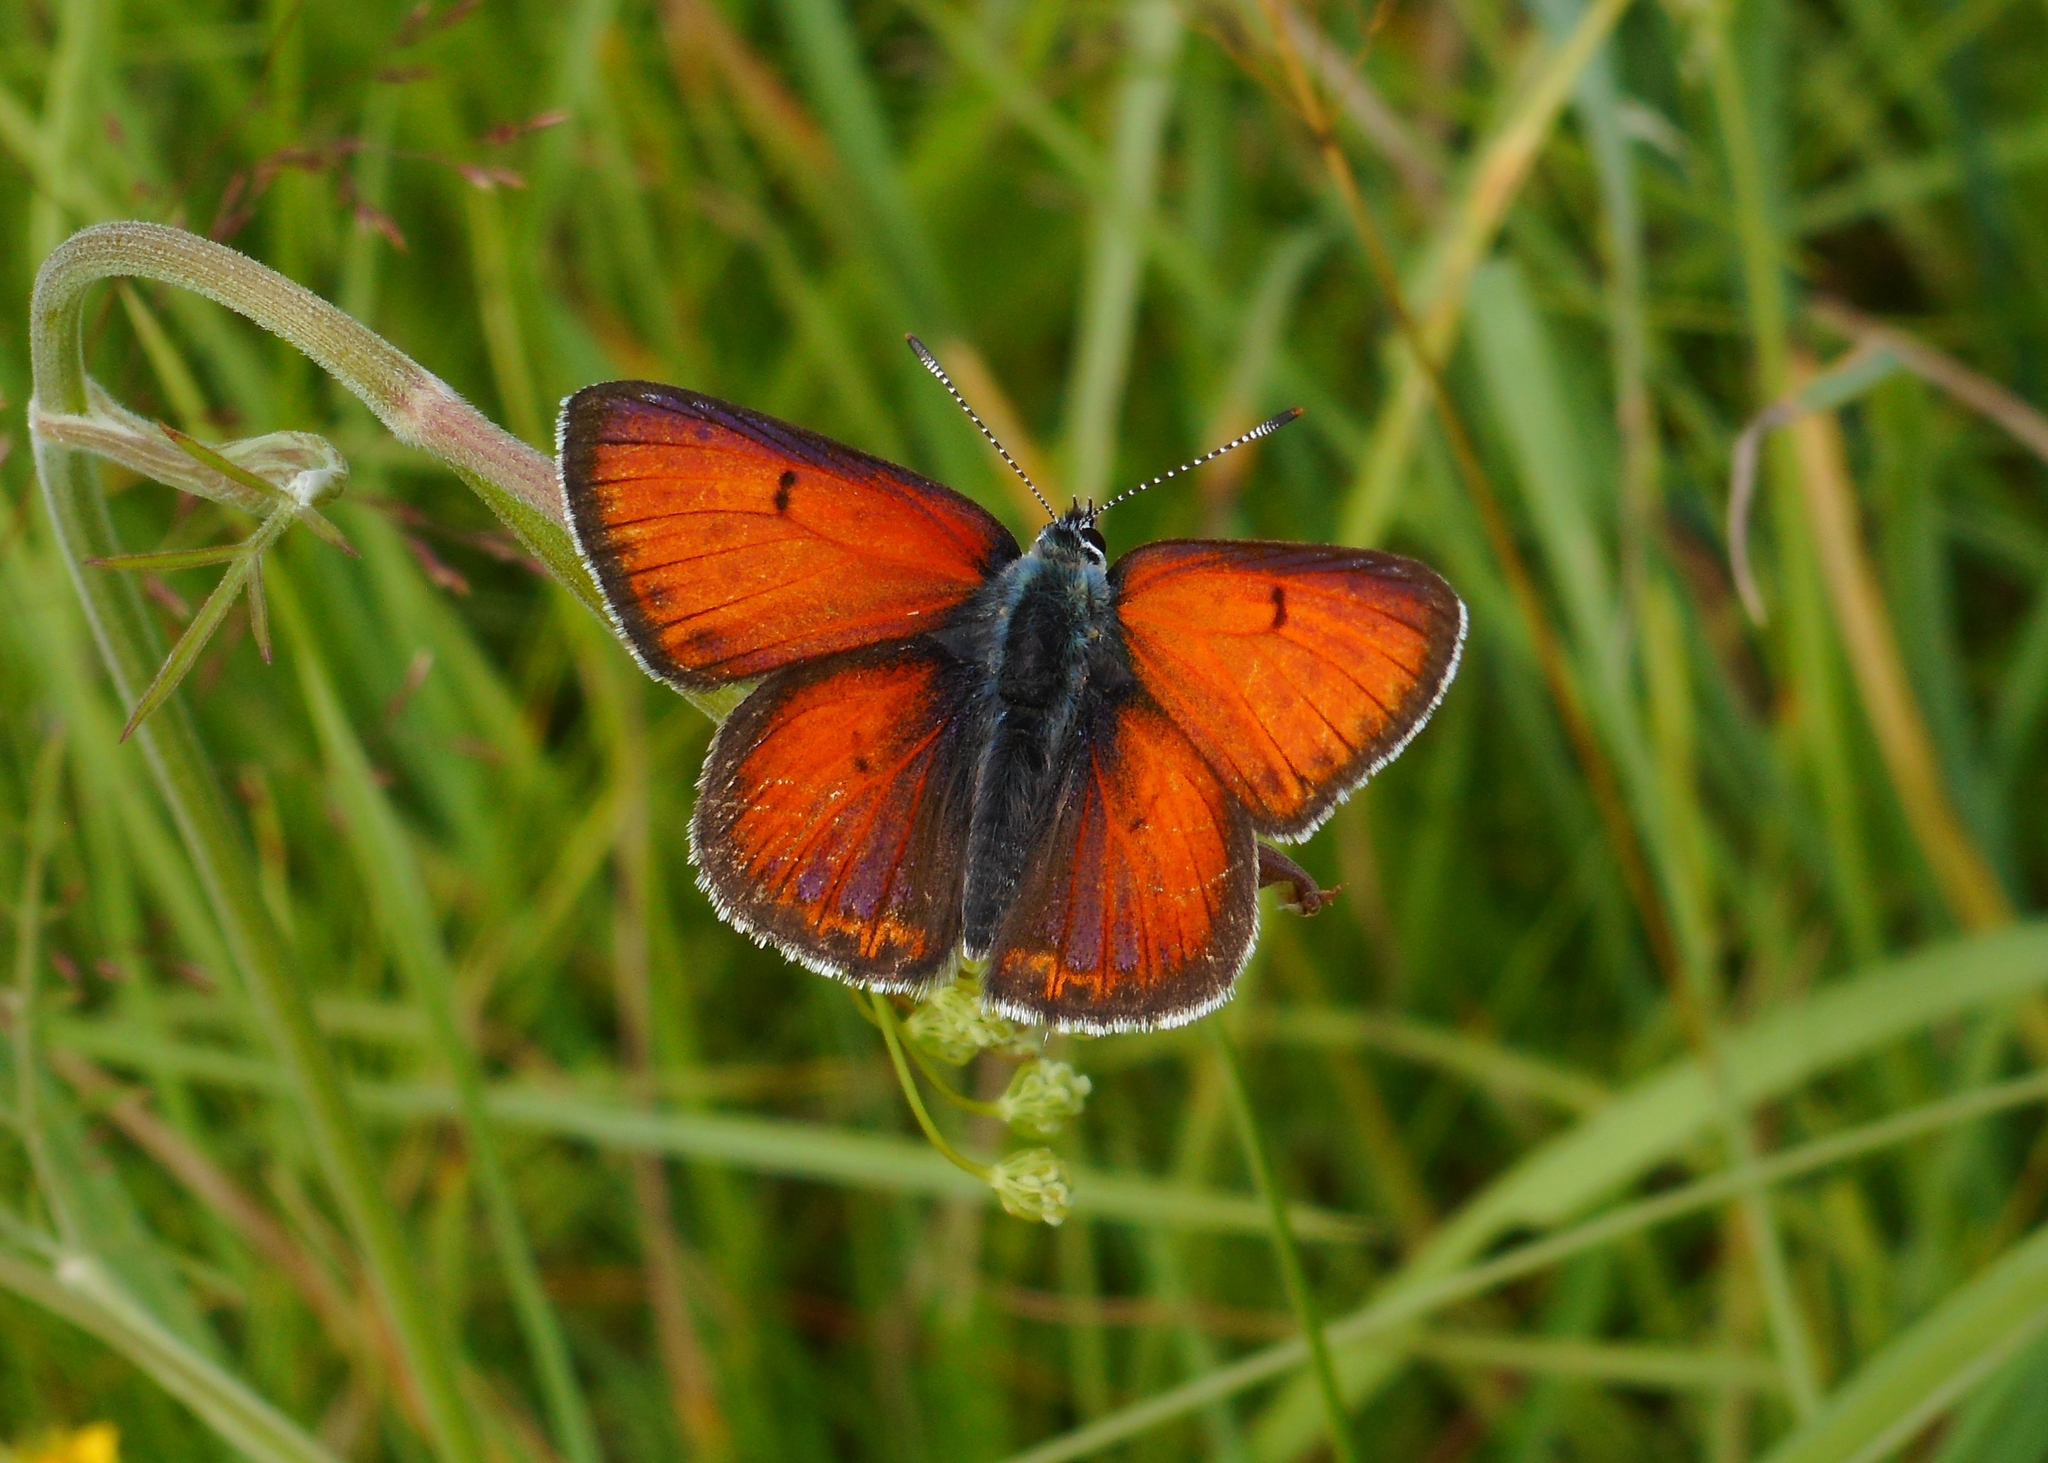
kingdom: Animalia
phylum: Arthropoda
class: Insecta
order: Lepidoptera
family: Lycaenidae
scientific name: Lycaenidae
